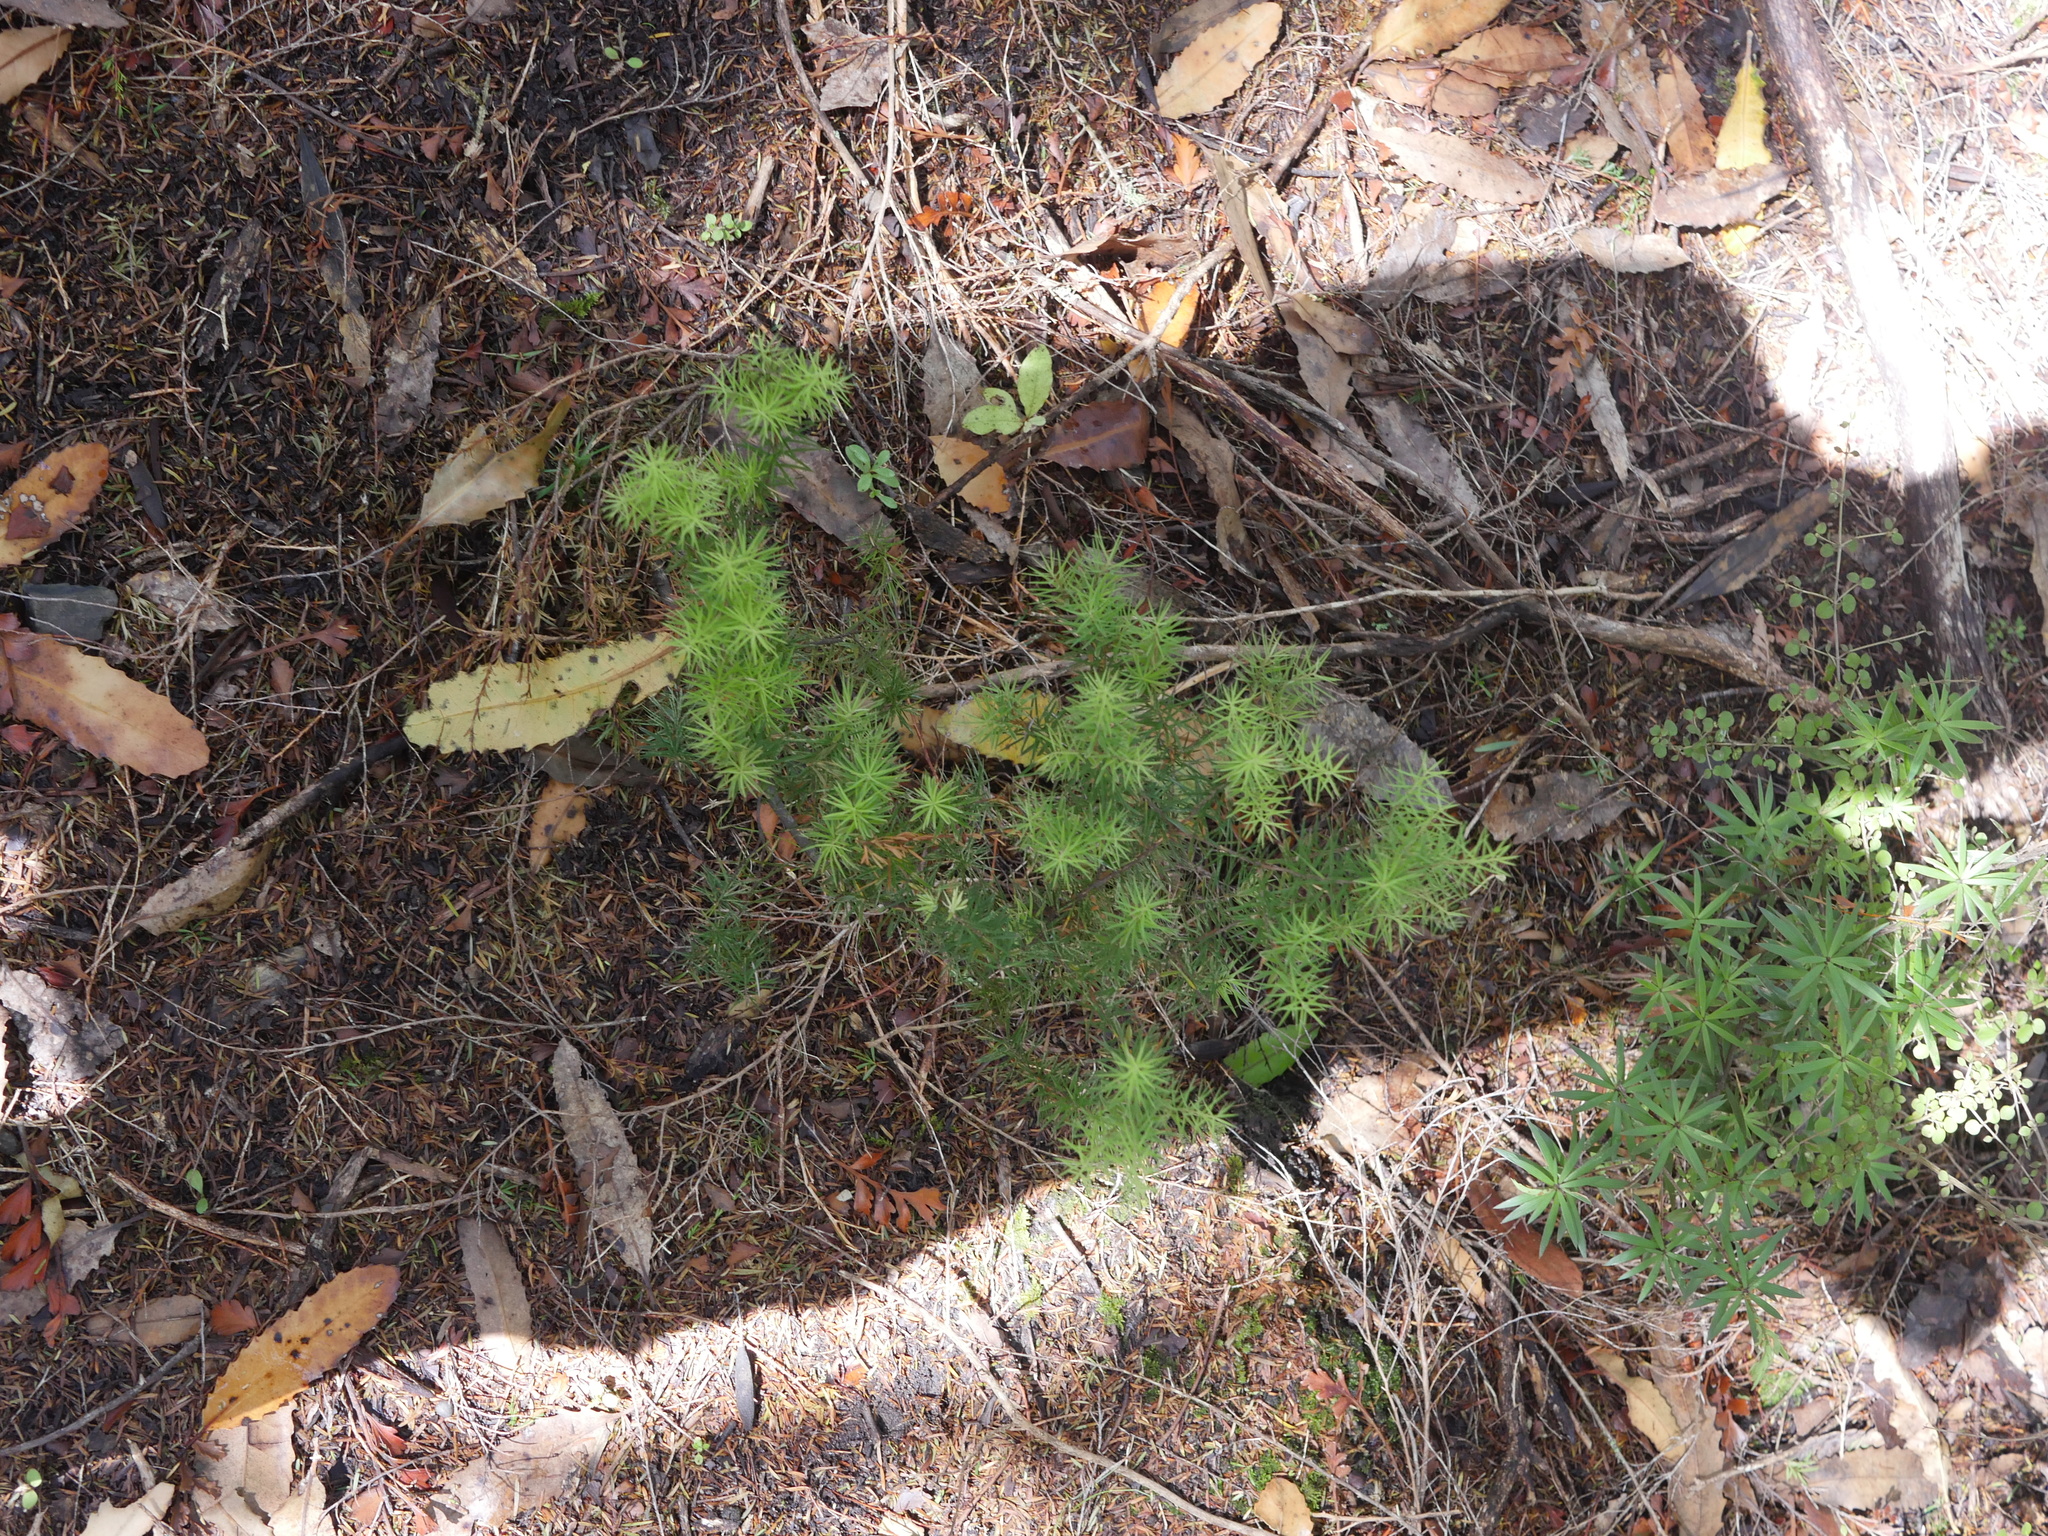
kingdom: Plantae
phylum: Tracheophyta
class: Magnoliopsida
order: Ericales
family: Ericaceae
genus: Leptecophylla
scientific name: Leptecophylla juniperina
